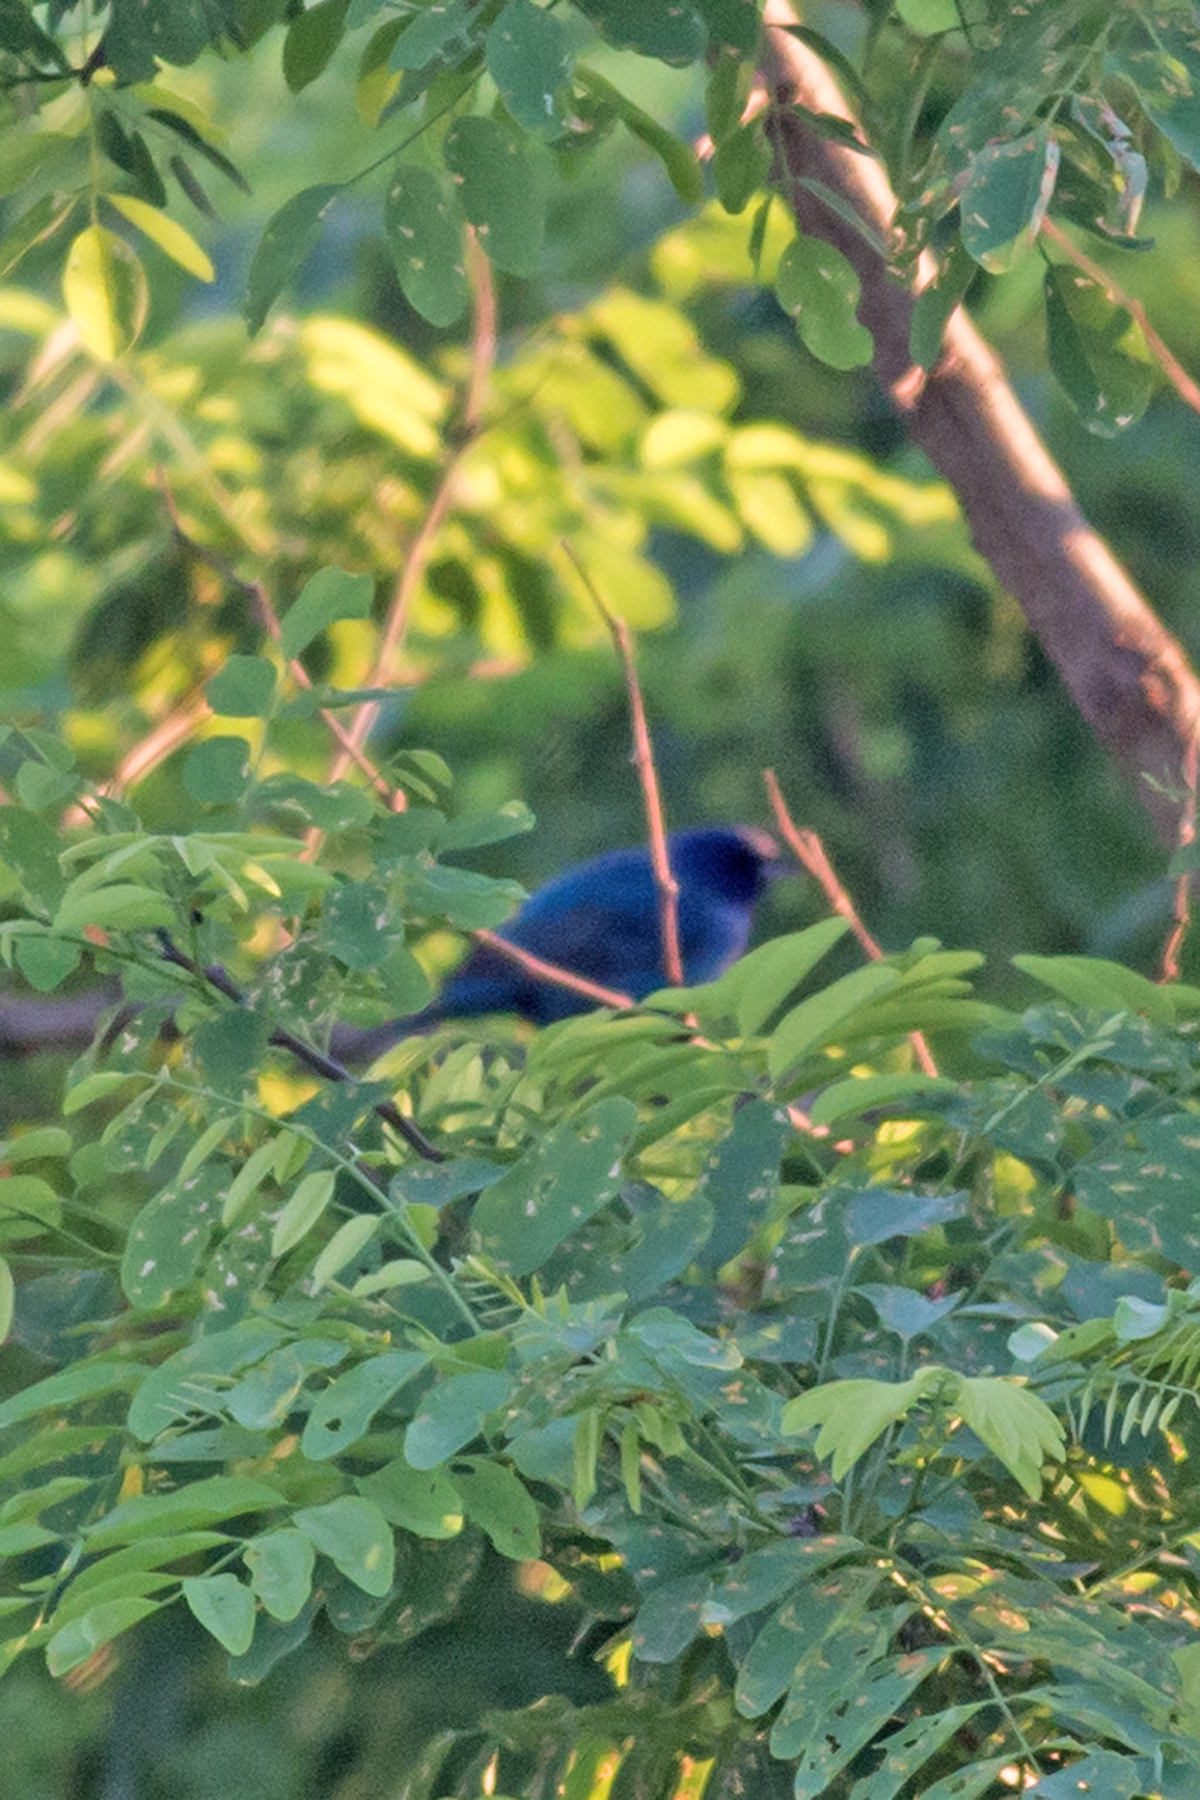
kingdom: Animalia
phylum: Chordata
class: Aves
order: Passeriformes
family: Cardinalidae
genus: Passerina
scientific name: Passerina cyanea
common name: Indigo bunting
